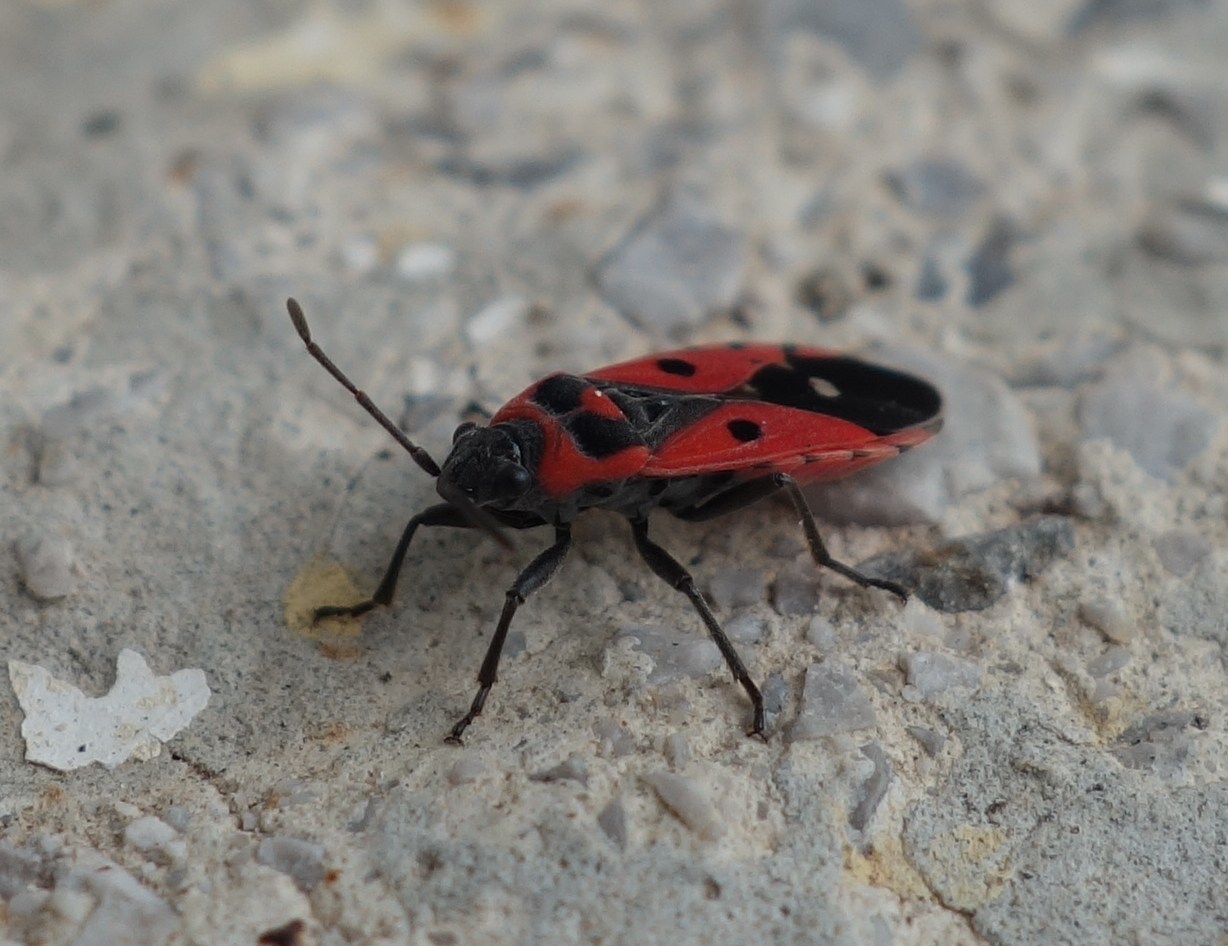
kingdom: Animalia
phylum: Arthropoda
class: Insecta
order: Hemiptera
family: Lygaeidae
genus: Melanocoryphus
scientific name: Melanocoryphus albomaculatus
